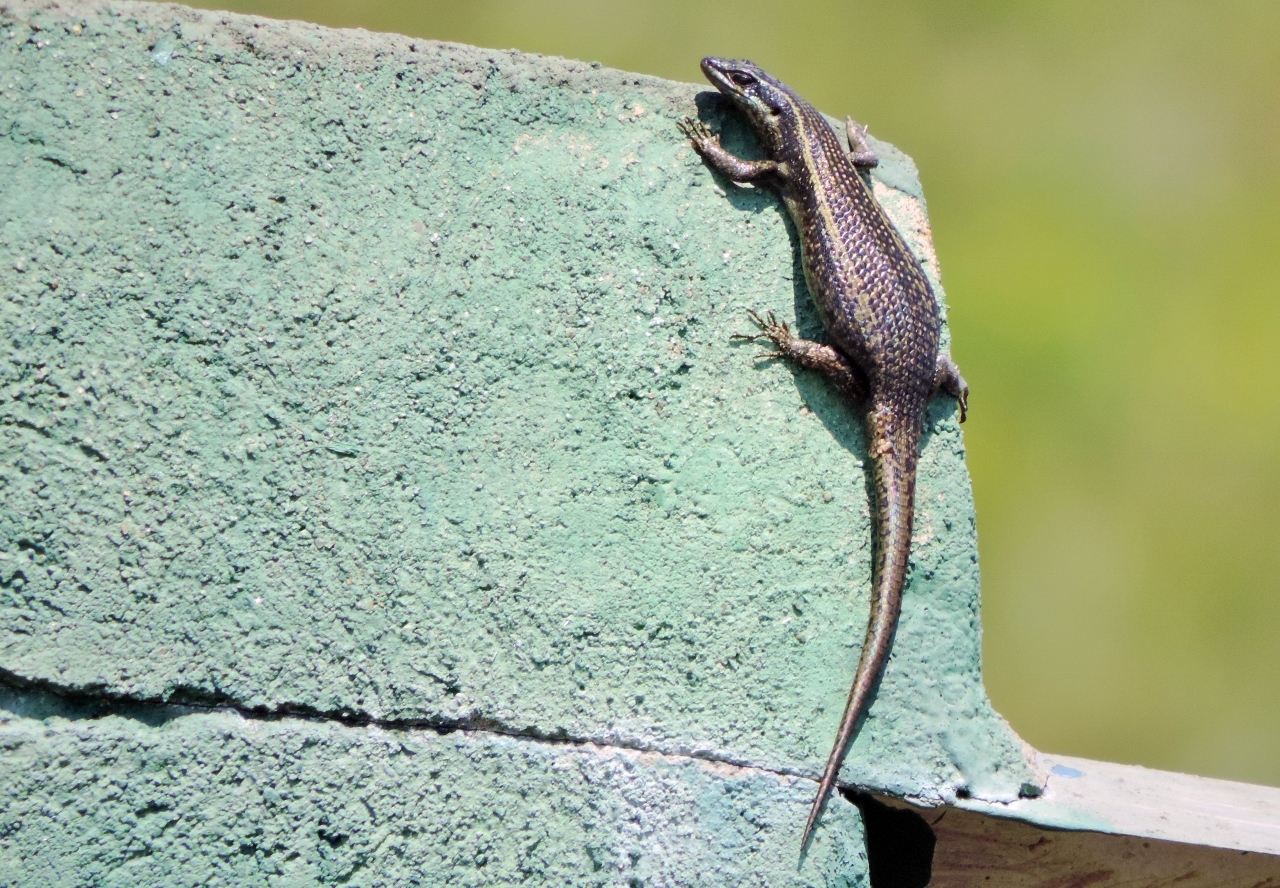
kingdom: Animalia
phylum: Chordata
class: Squamata
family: Scincidae
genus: Trachylepis
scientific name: Trachylepis punctatissima
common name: Montane speckled skink
